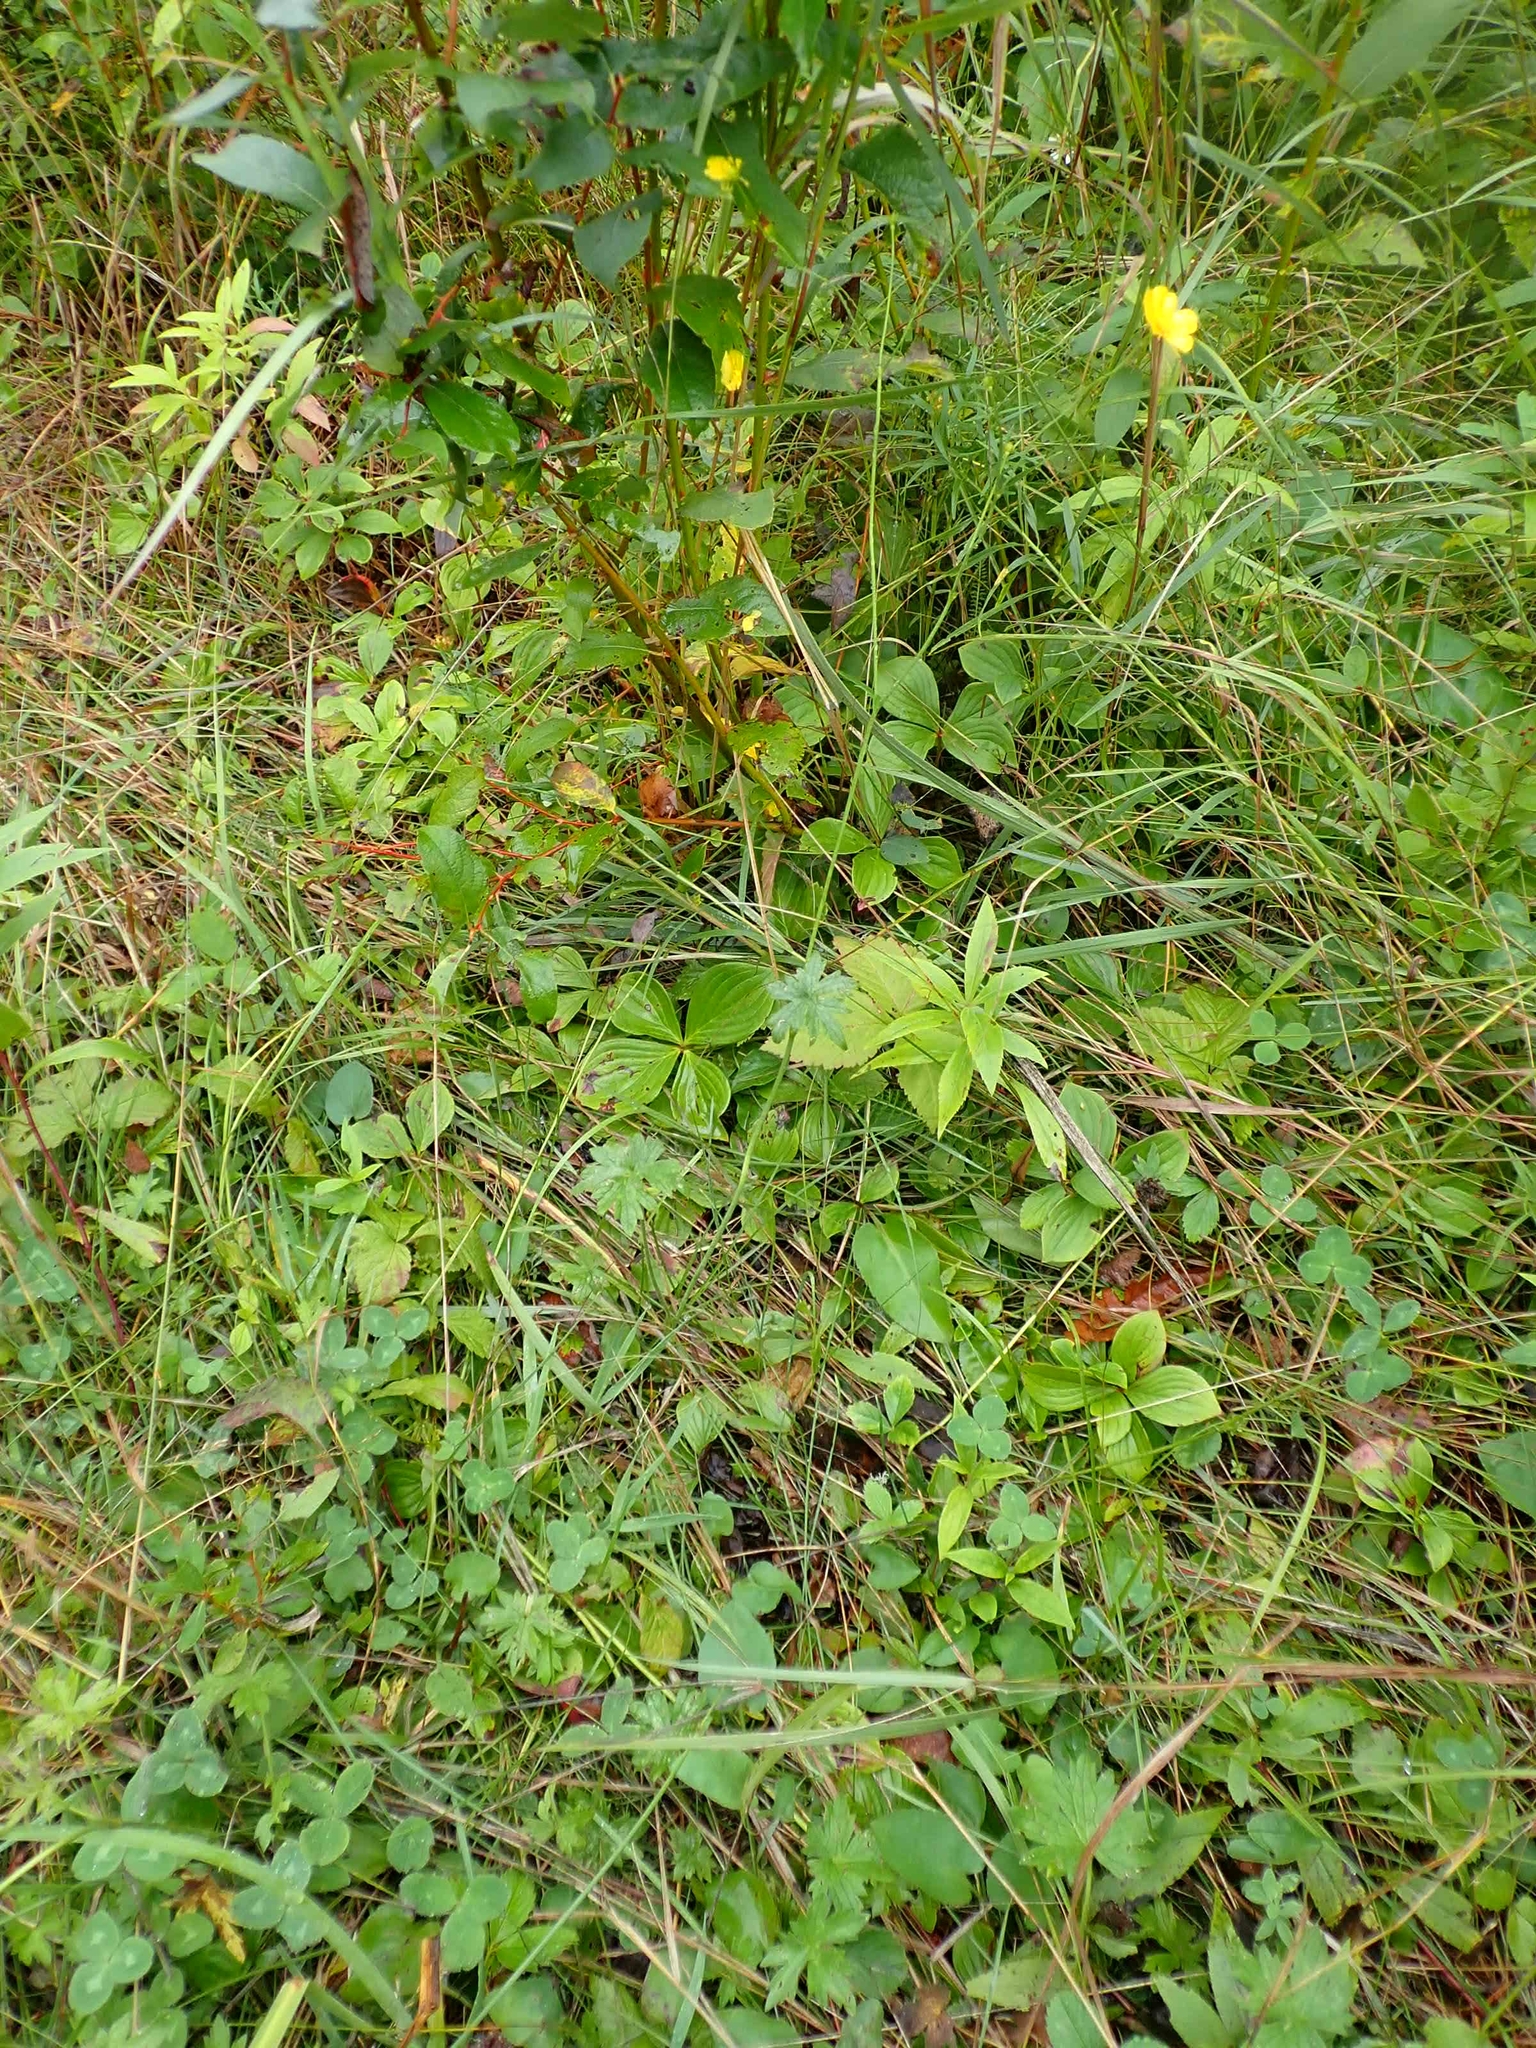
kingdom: Plantae
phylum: Tracheophyta
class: Magnoliopsida
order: Ranunculales
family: Ranunculaceae
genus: Ranunculus
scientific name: Ranunculus acris
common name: Meadow buttercup
